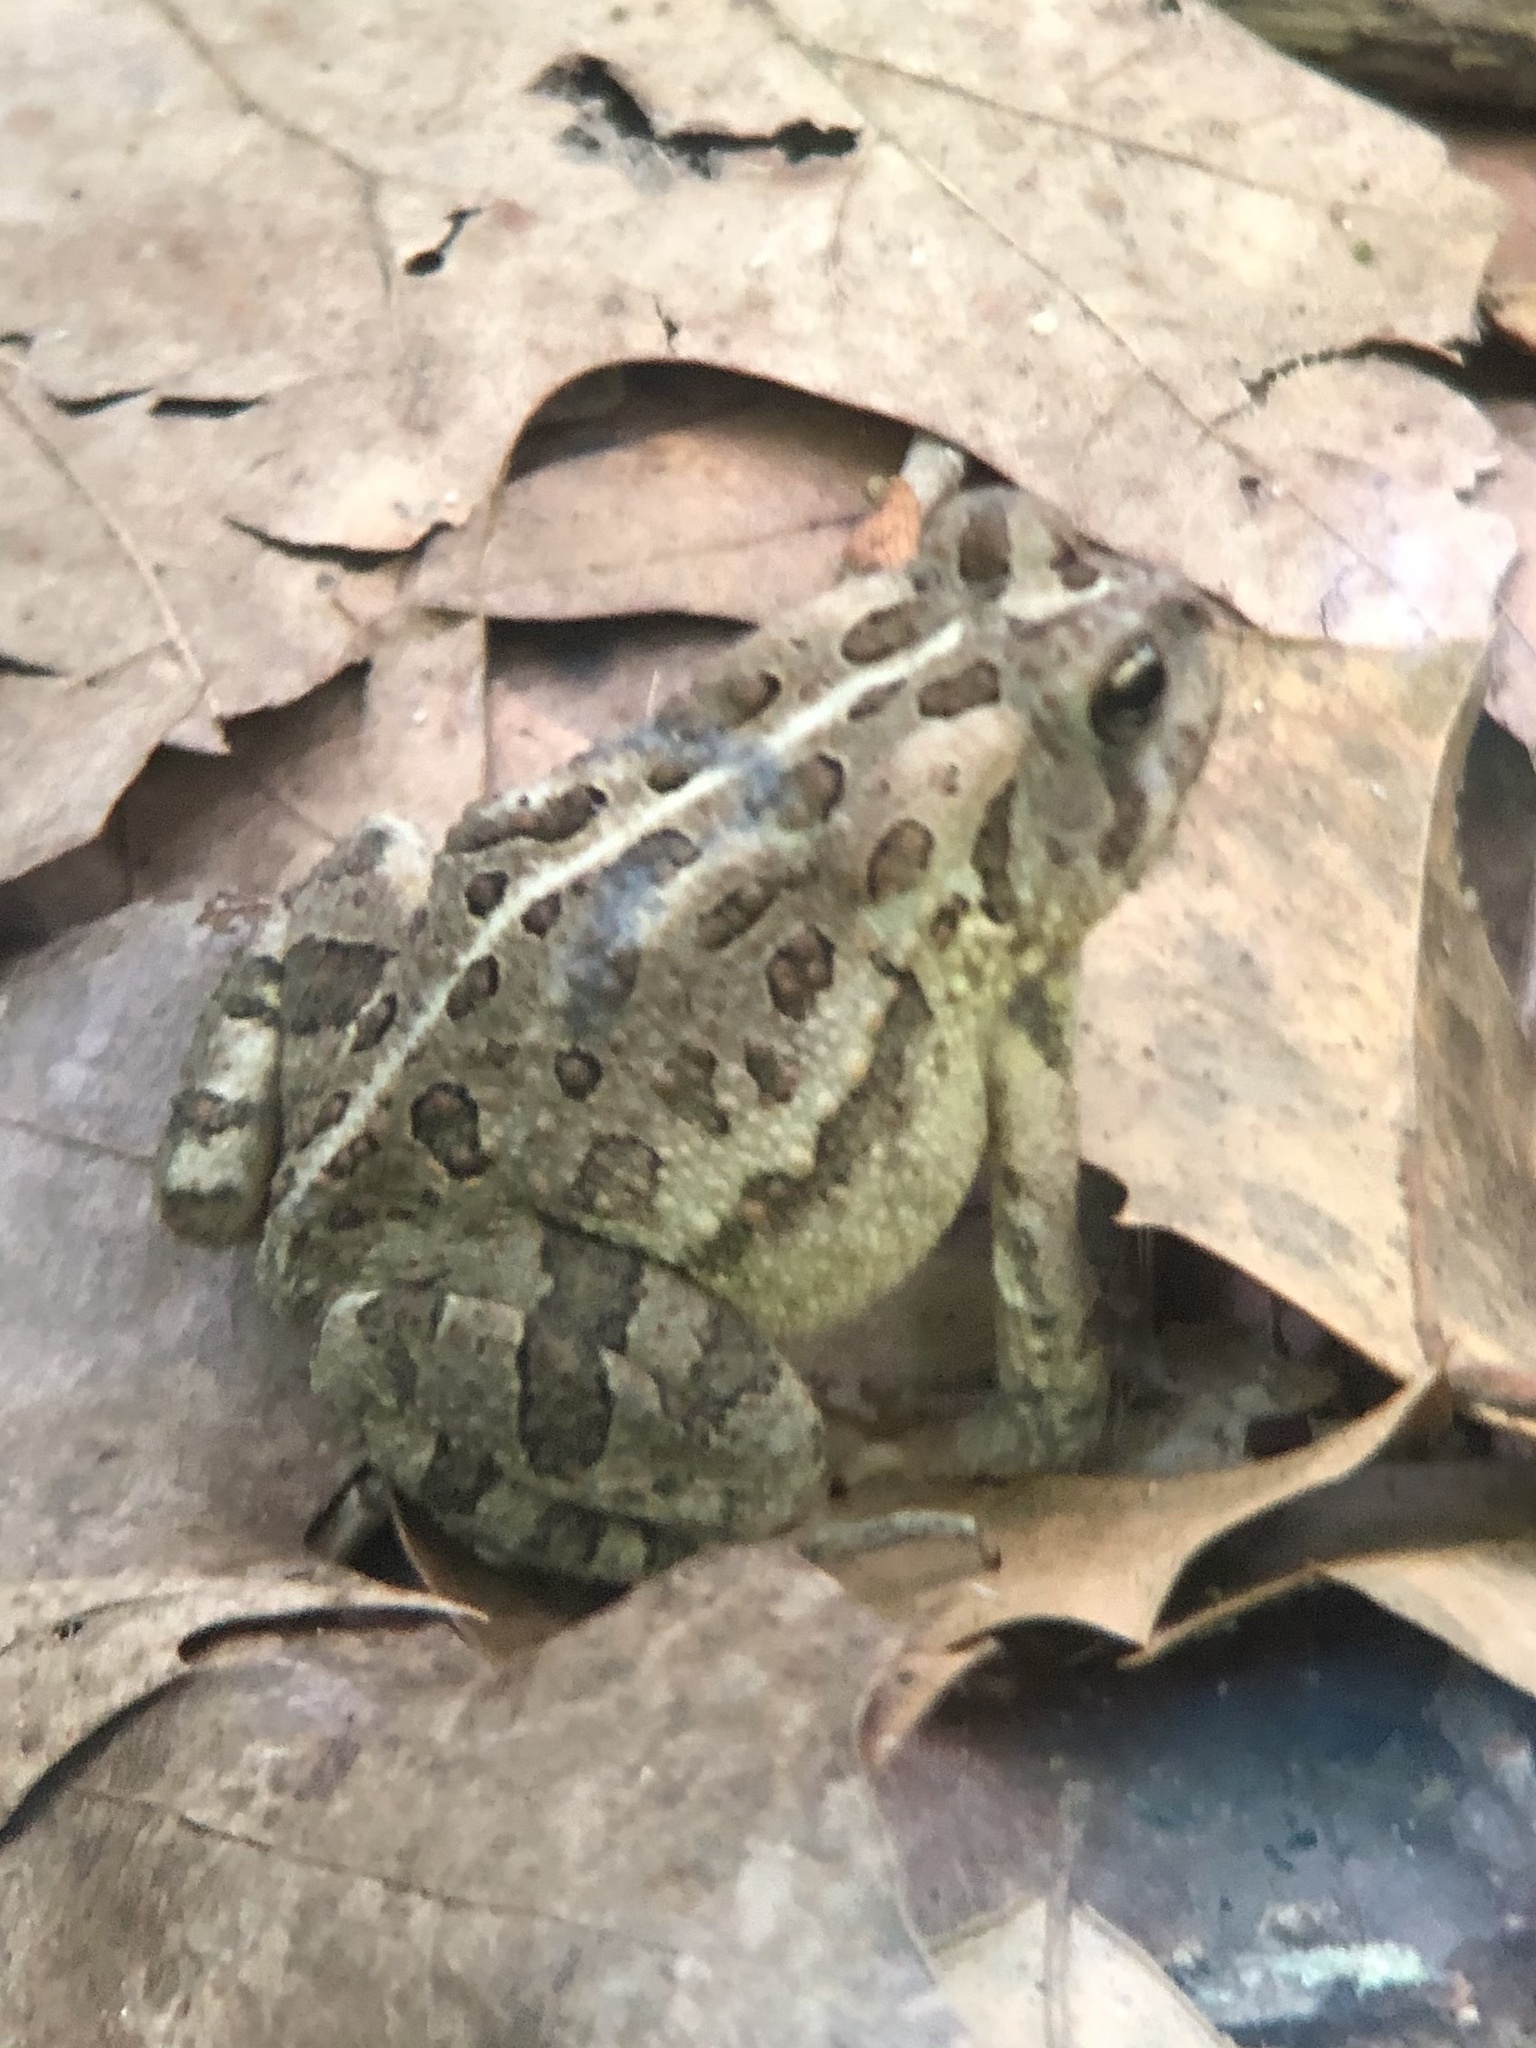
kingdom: Animalia
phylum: Chordata
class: Amphibia
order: Anura
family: Bufonidae
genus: Anaxyrus
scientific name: Anaxyrus fowleri
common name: Fowler's toad
